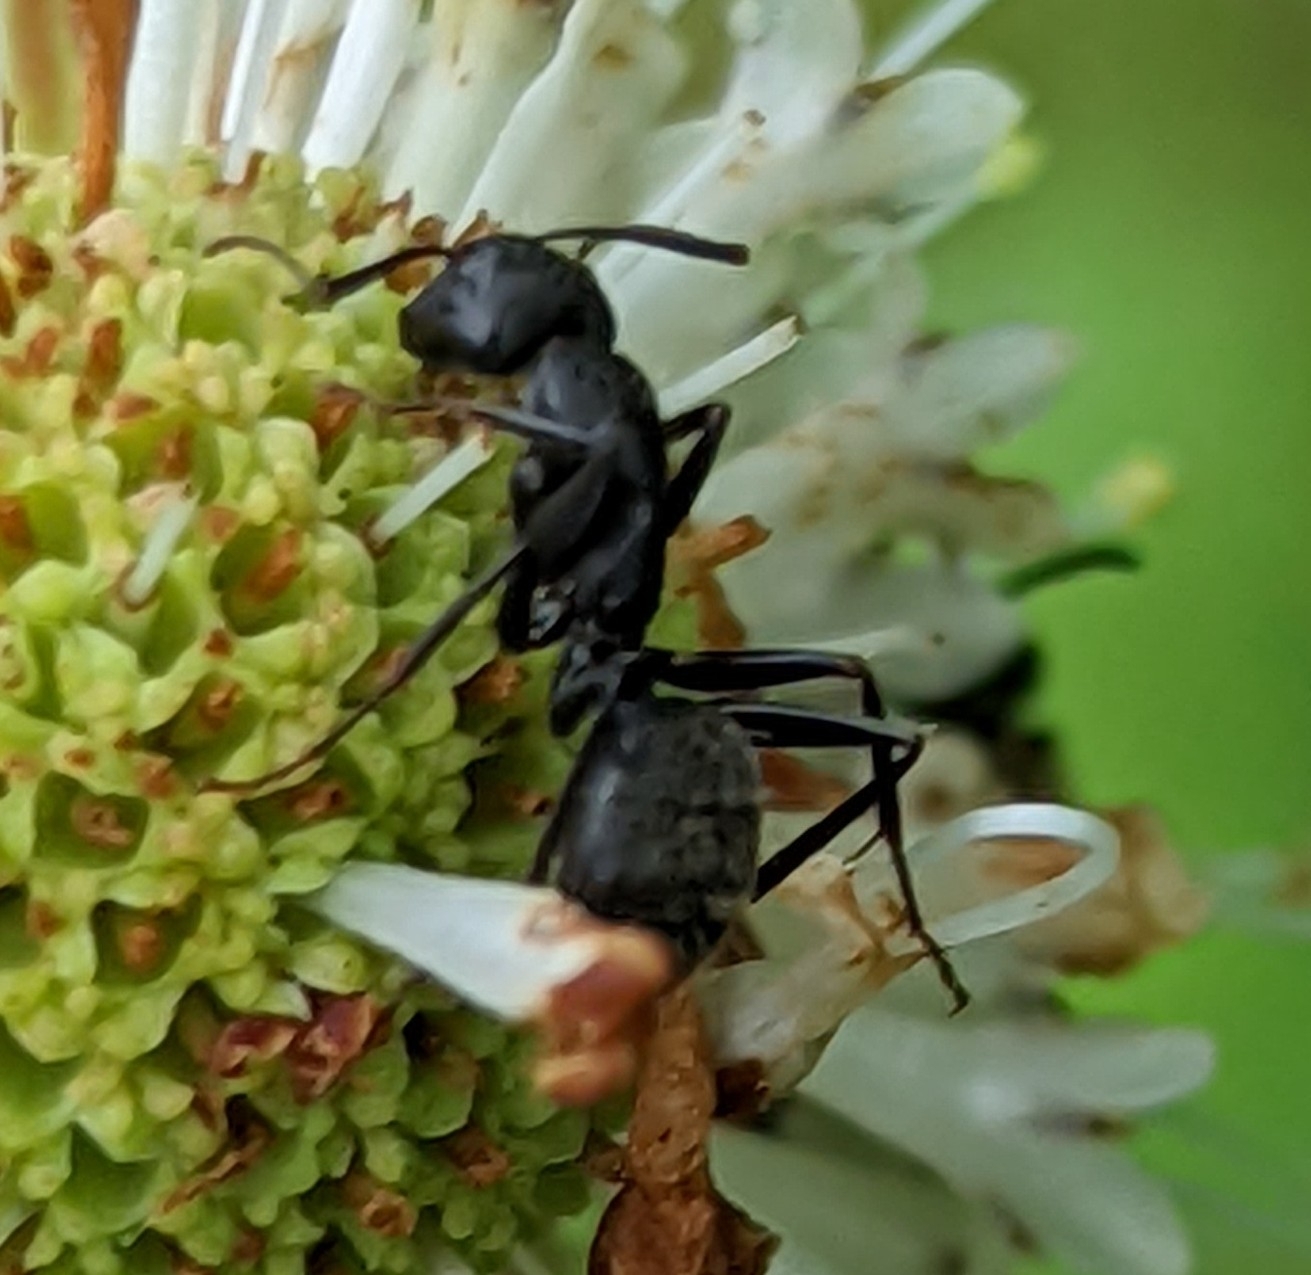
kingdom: Animalia
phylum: Arthropoda
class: Insecta
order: Hymenoptera
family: Formicidae
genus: Camponotus
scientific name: Camponotus pennsylvanicus
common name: Black carpenter ant
